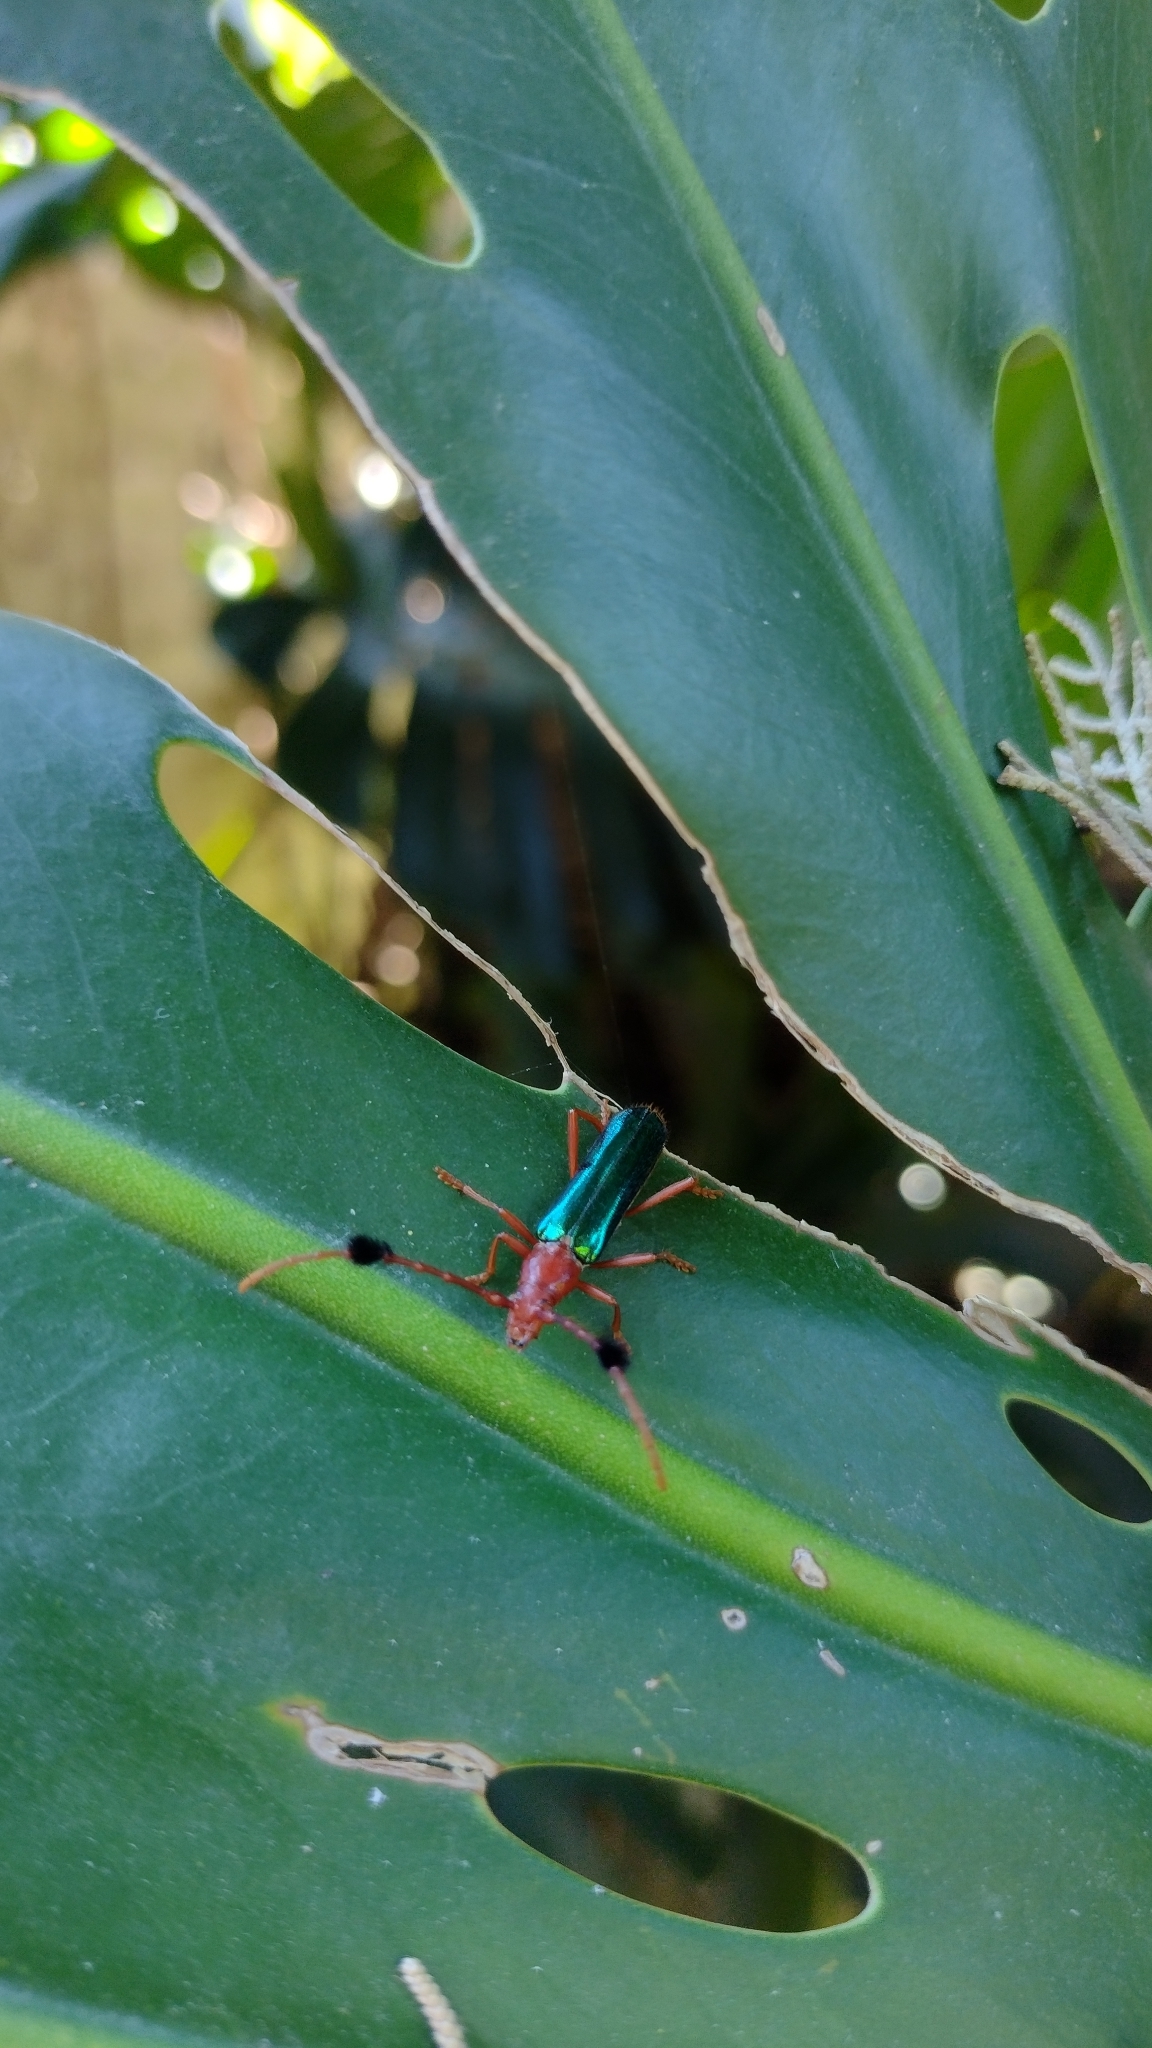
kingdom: Animalia
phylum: Arthropoda
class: Insecta
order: Coleoptera
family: Cerambycidae
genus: Compsocerus
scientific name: Compsocerus violaceus
